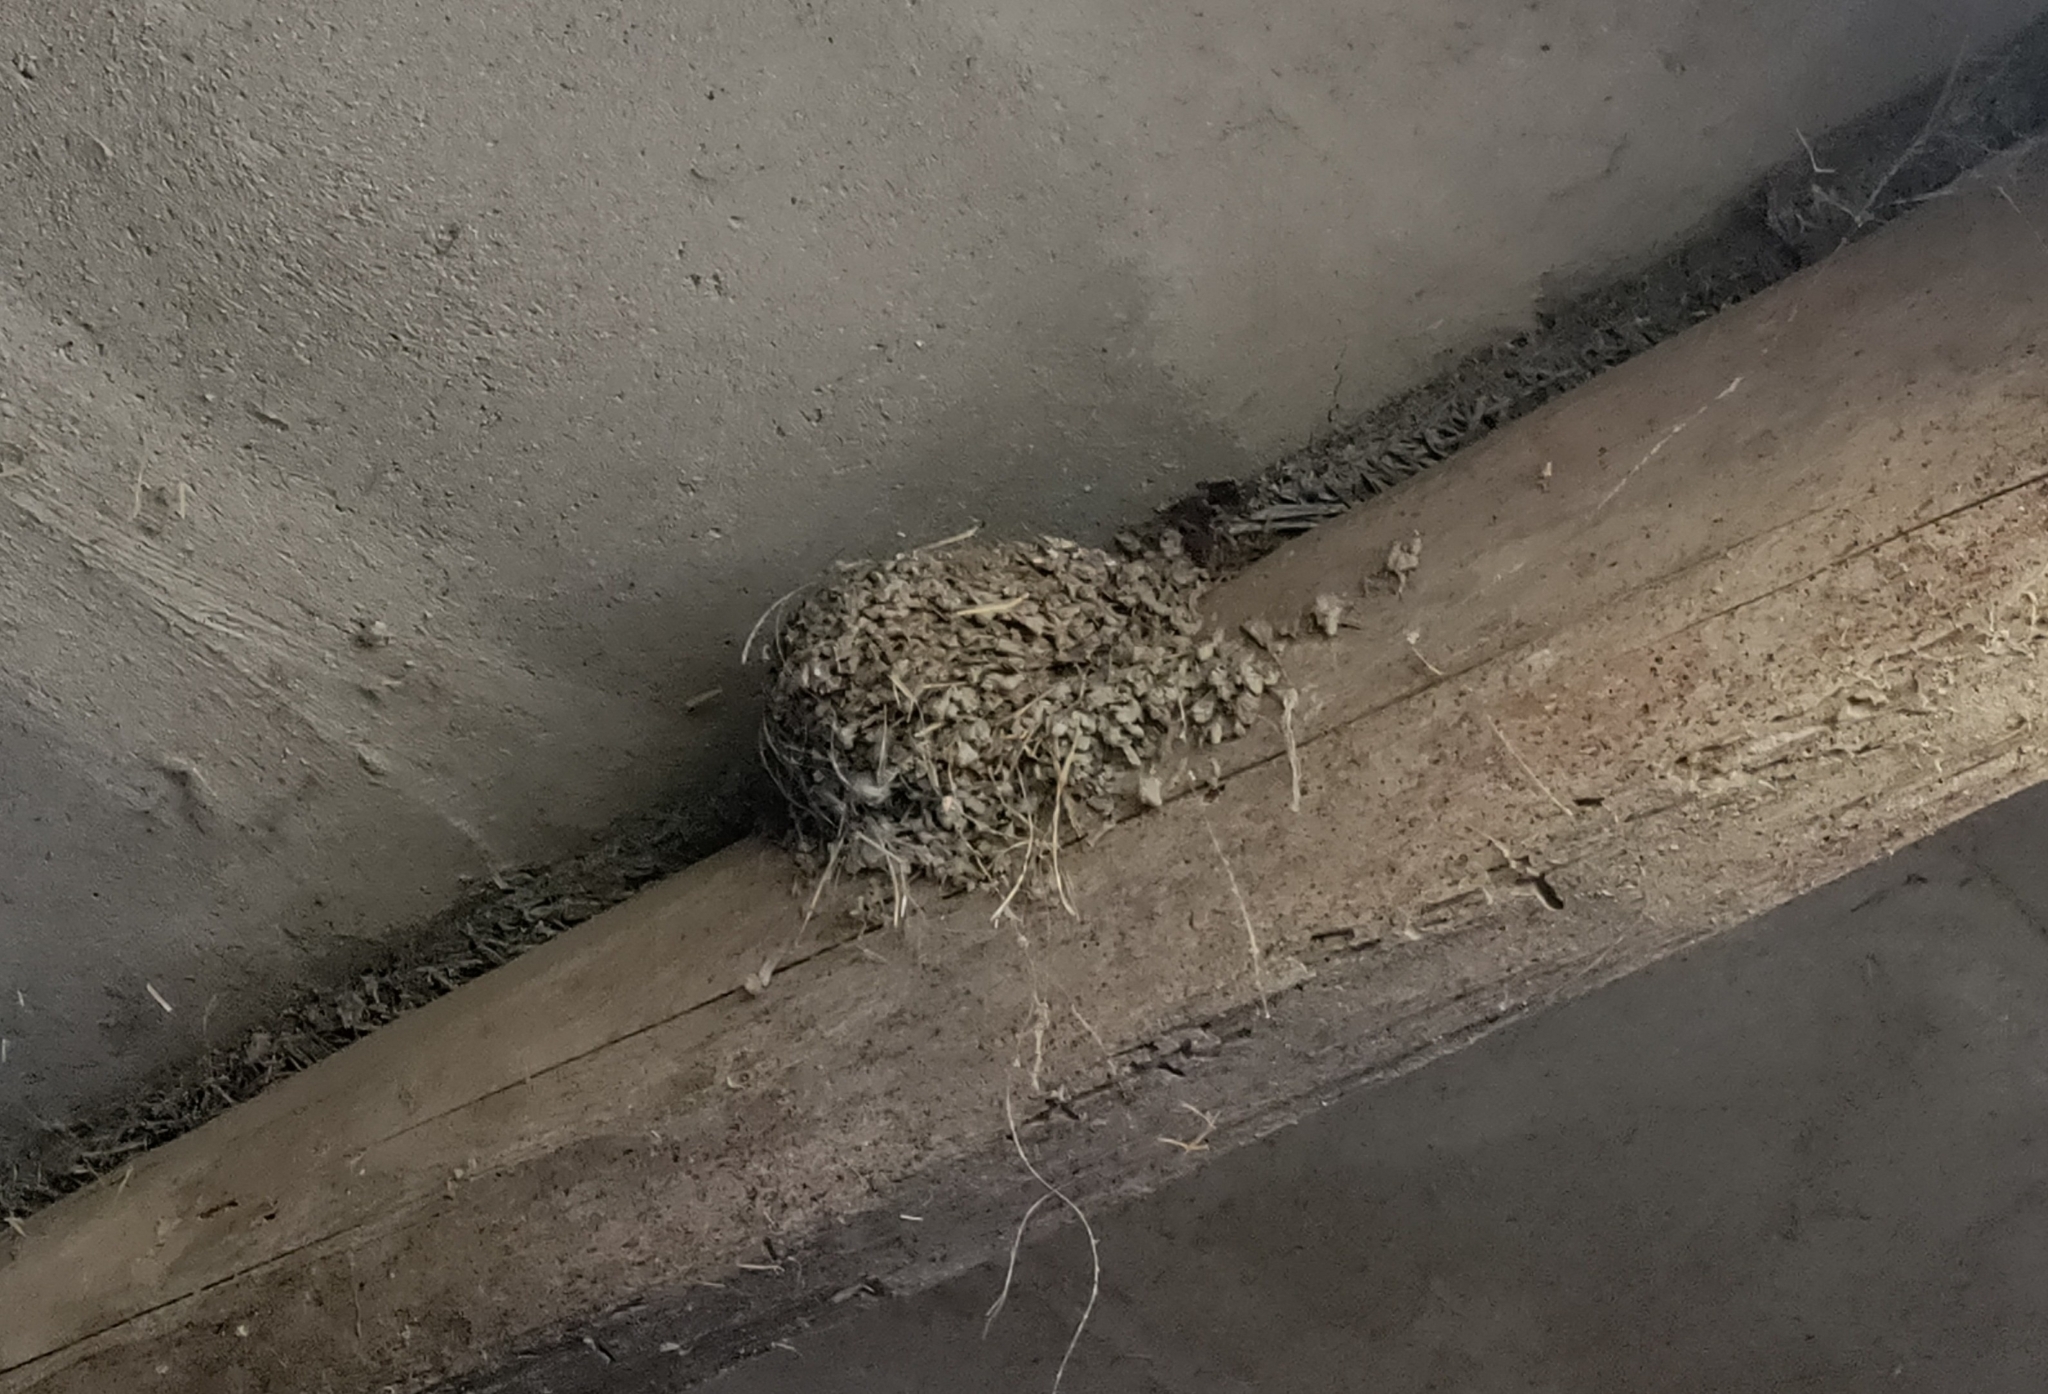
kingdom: Animalia
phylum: Chordata
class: Aves
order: Passeriformes
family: Hirundinidae
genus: Hirundo
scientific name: Hirundo rustica
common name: Barn swallow
